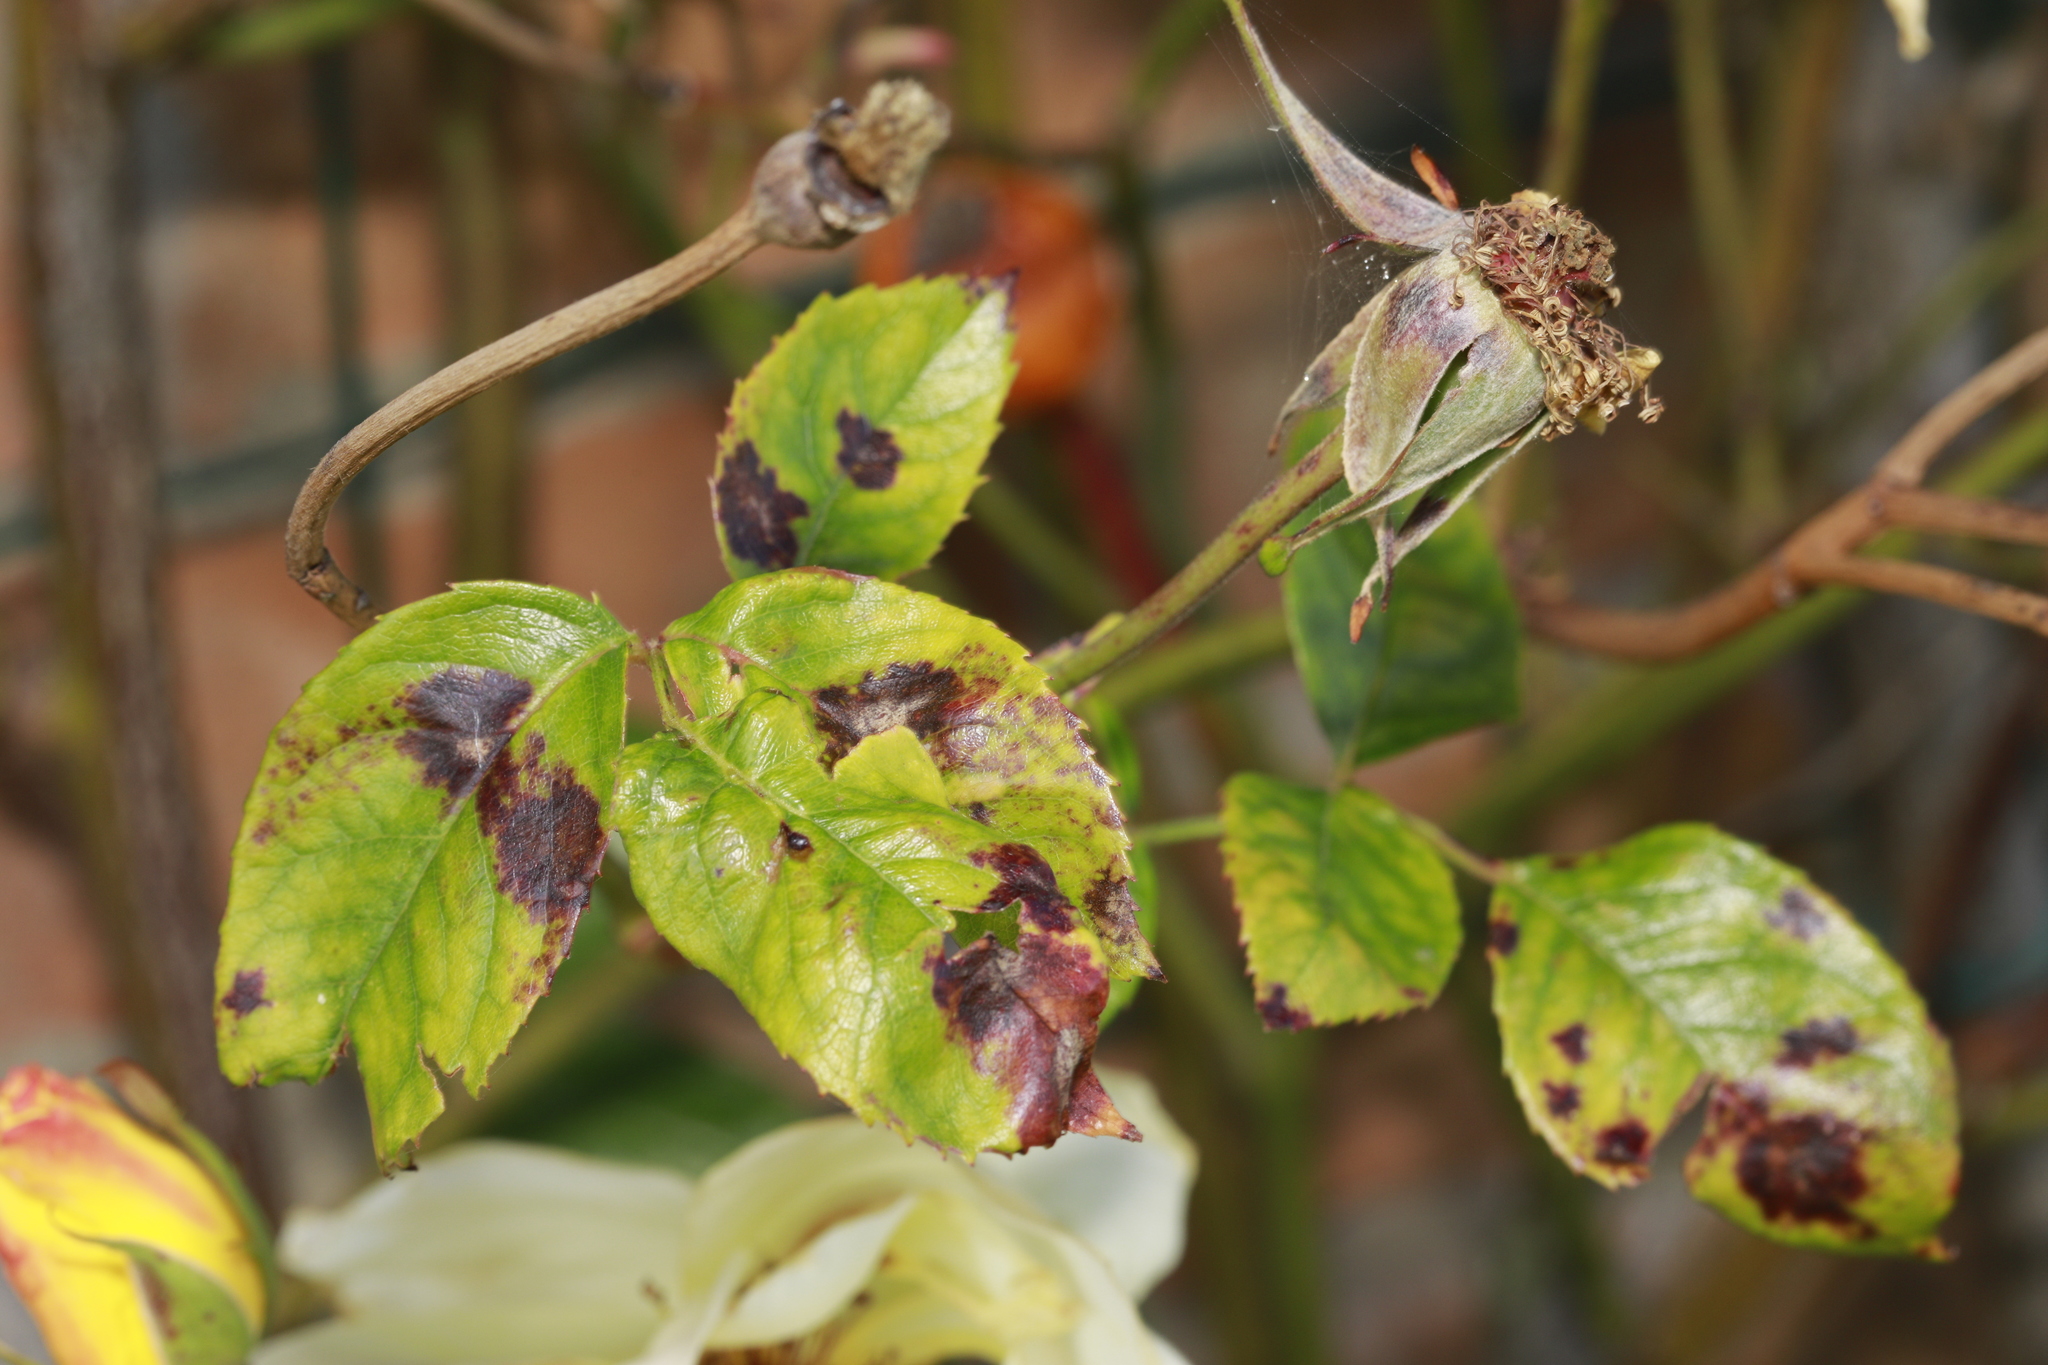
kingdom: Fungi
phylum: Ascomycota
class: Leotiomycetes
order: Helotiales
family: Drepanopezizaceae
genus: Diplocarpon
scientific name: Diplocarpon rosae
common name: Rose black-spot
